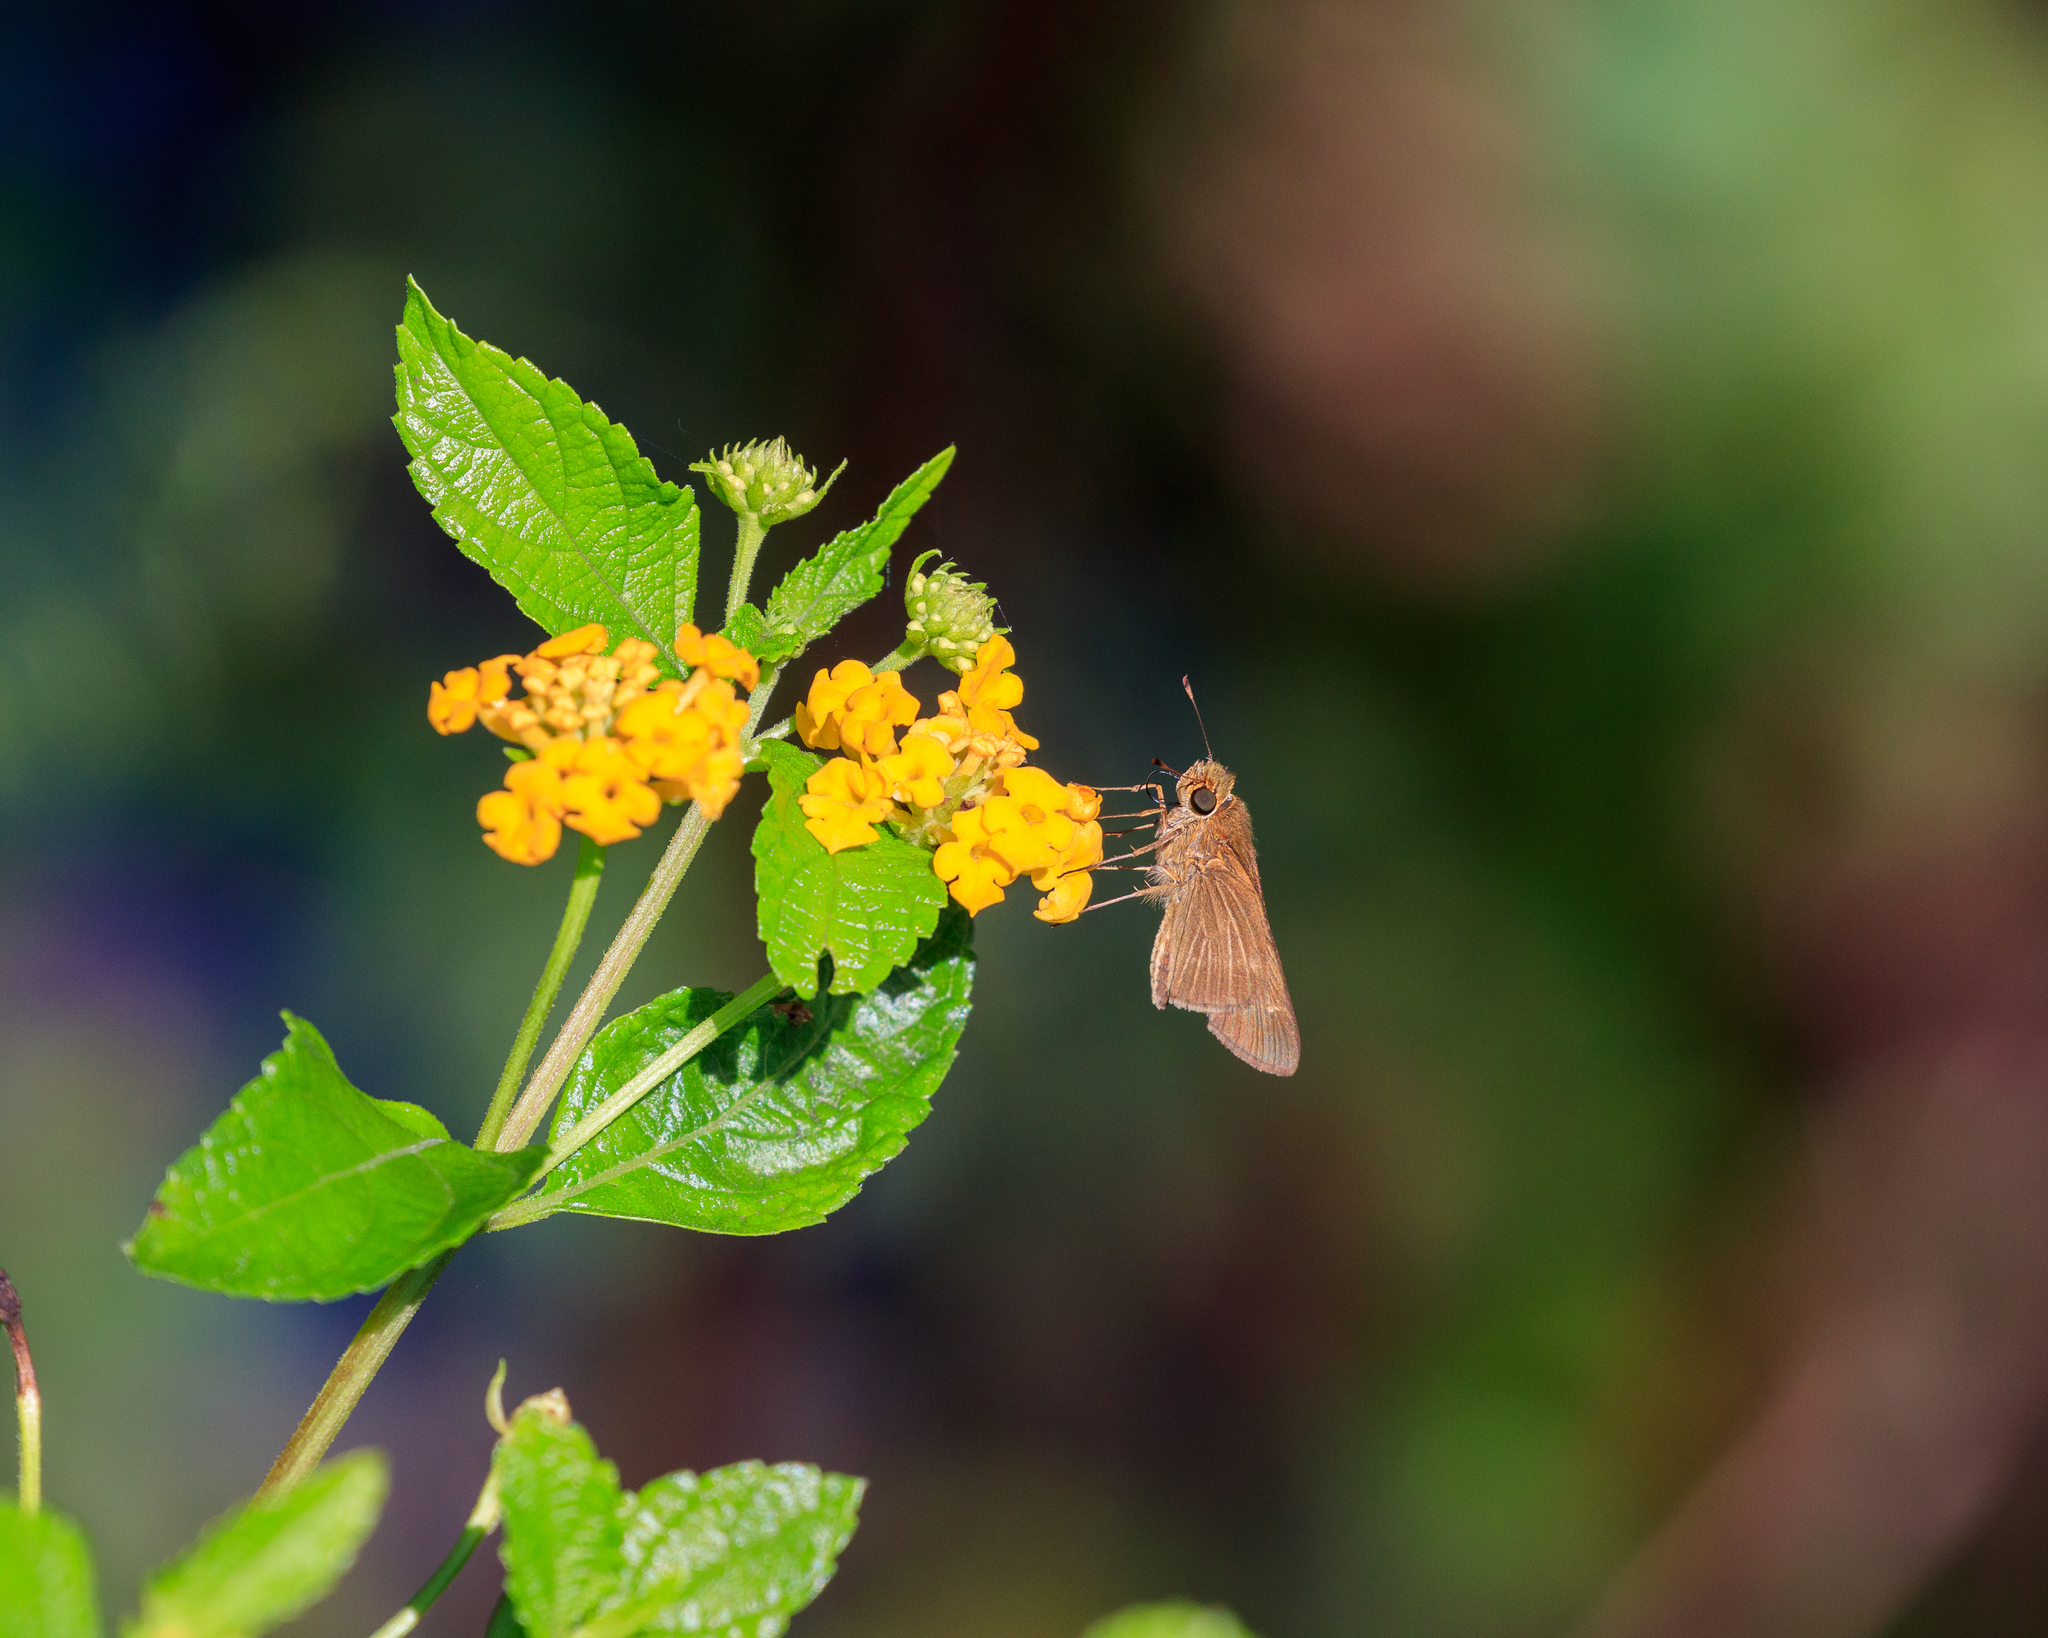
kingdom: Animalia
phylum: Arthropoda
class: Insecta
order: Lepidoptera
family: Hesperiidae
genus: Panoquina
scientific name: Panoquina ocola
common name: Ocola skipper
